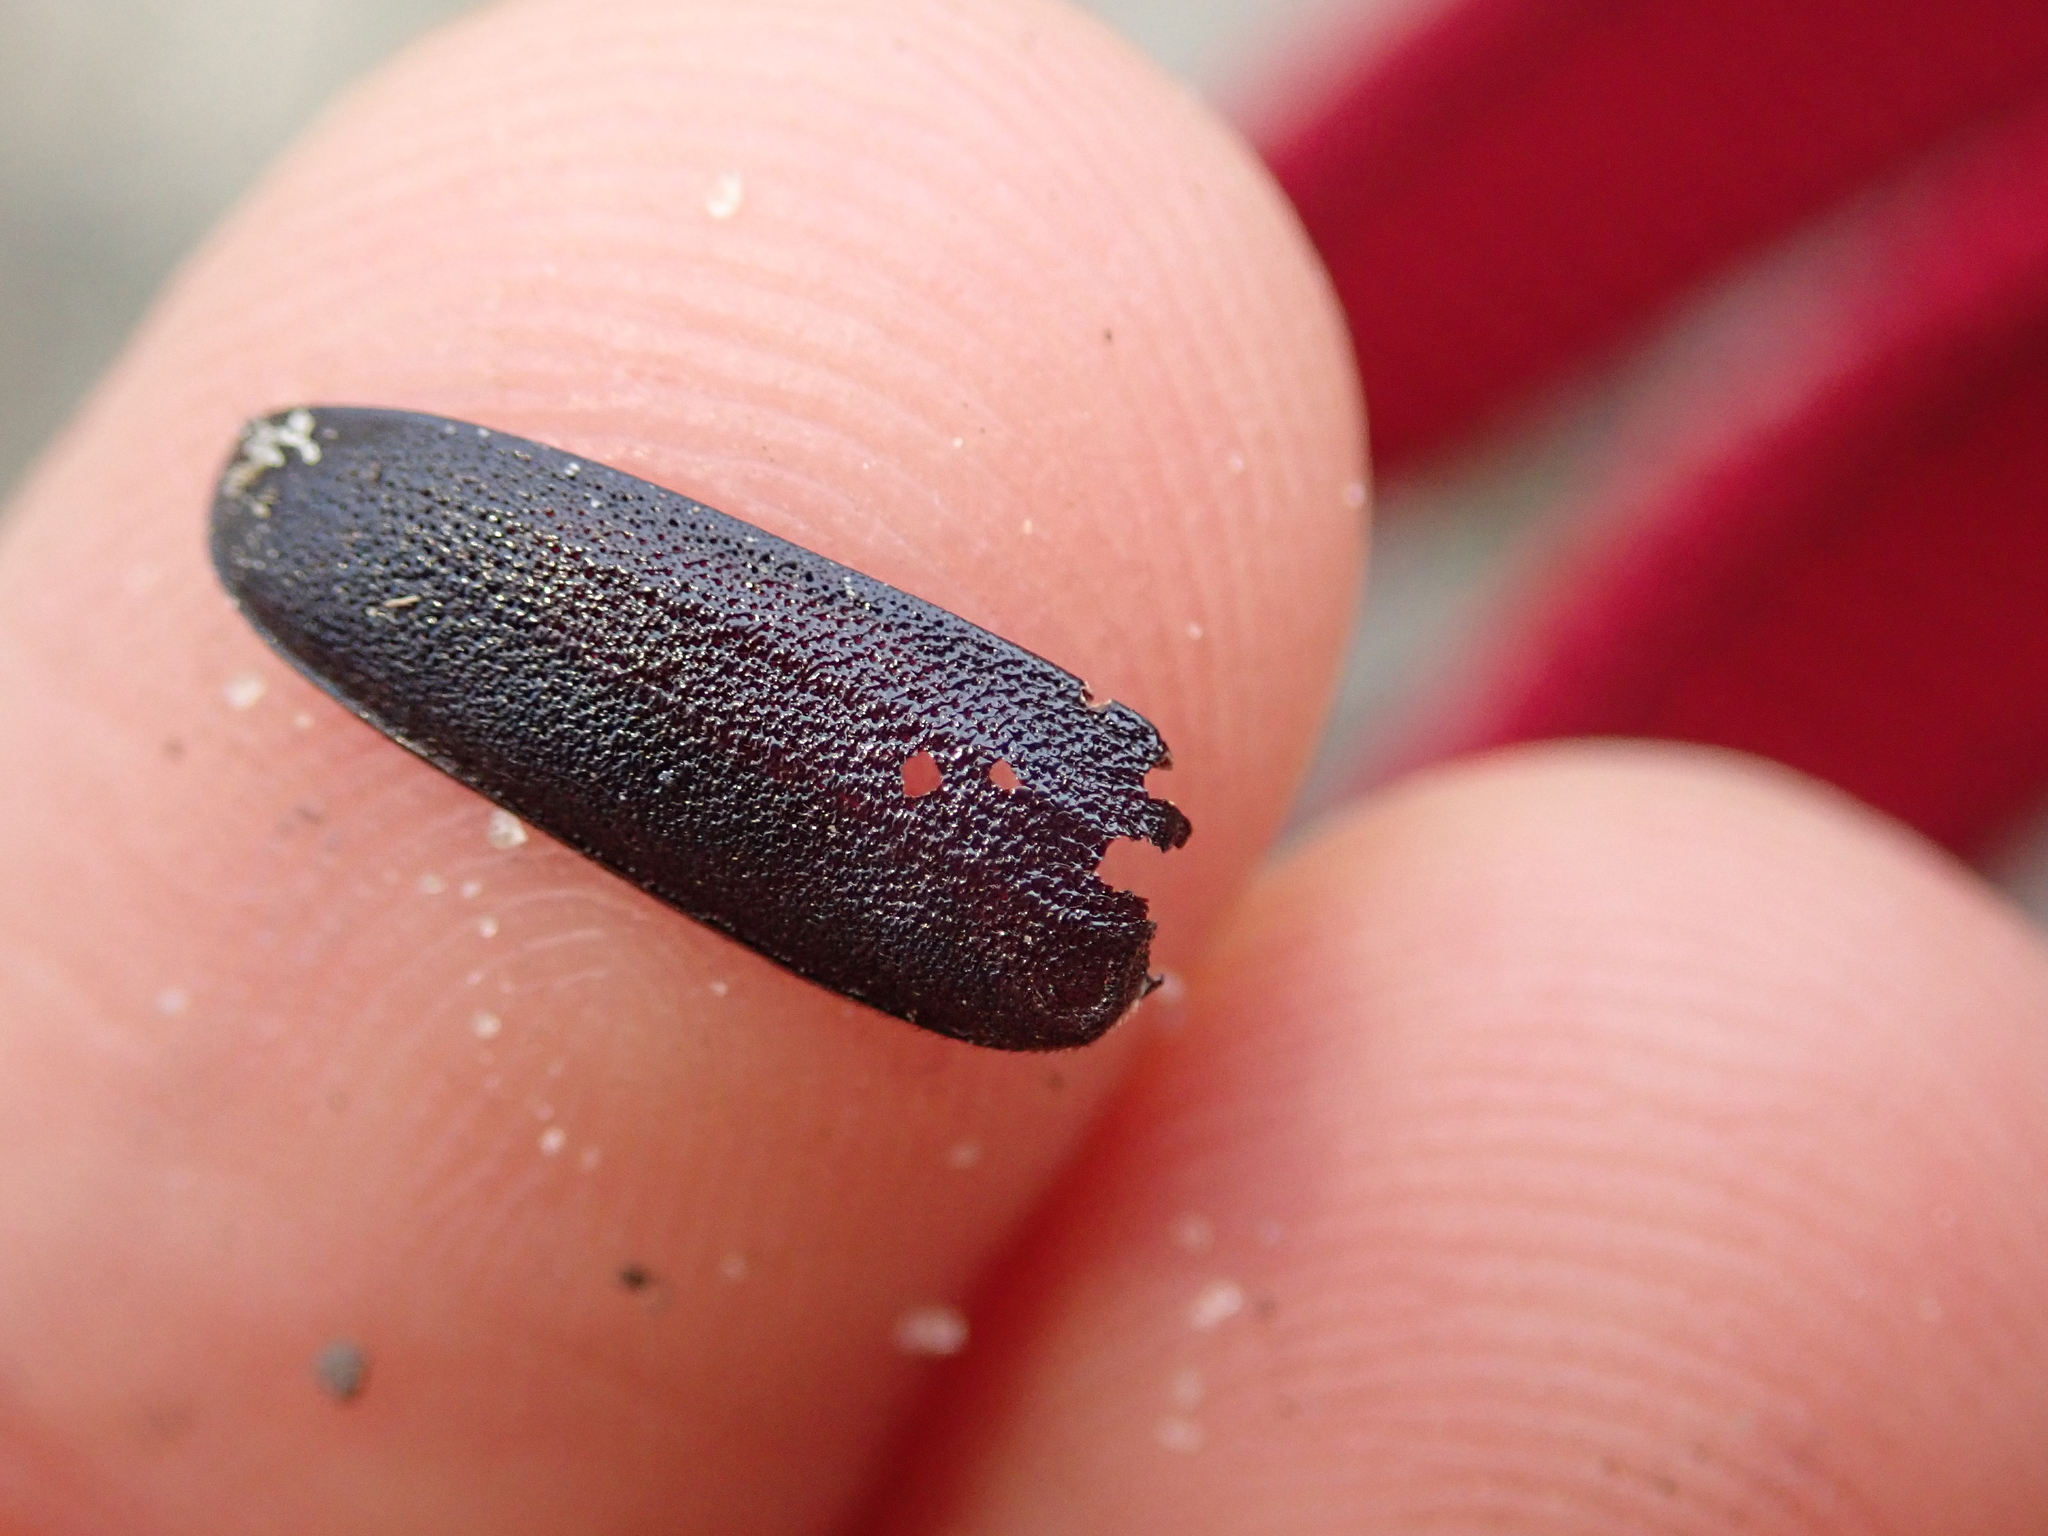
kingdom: Animalia
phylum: Arthropoda
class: Insecta
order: Coleoptera
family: Cerambycidae
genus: Spondylis
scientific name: Spondylis buprestoides
